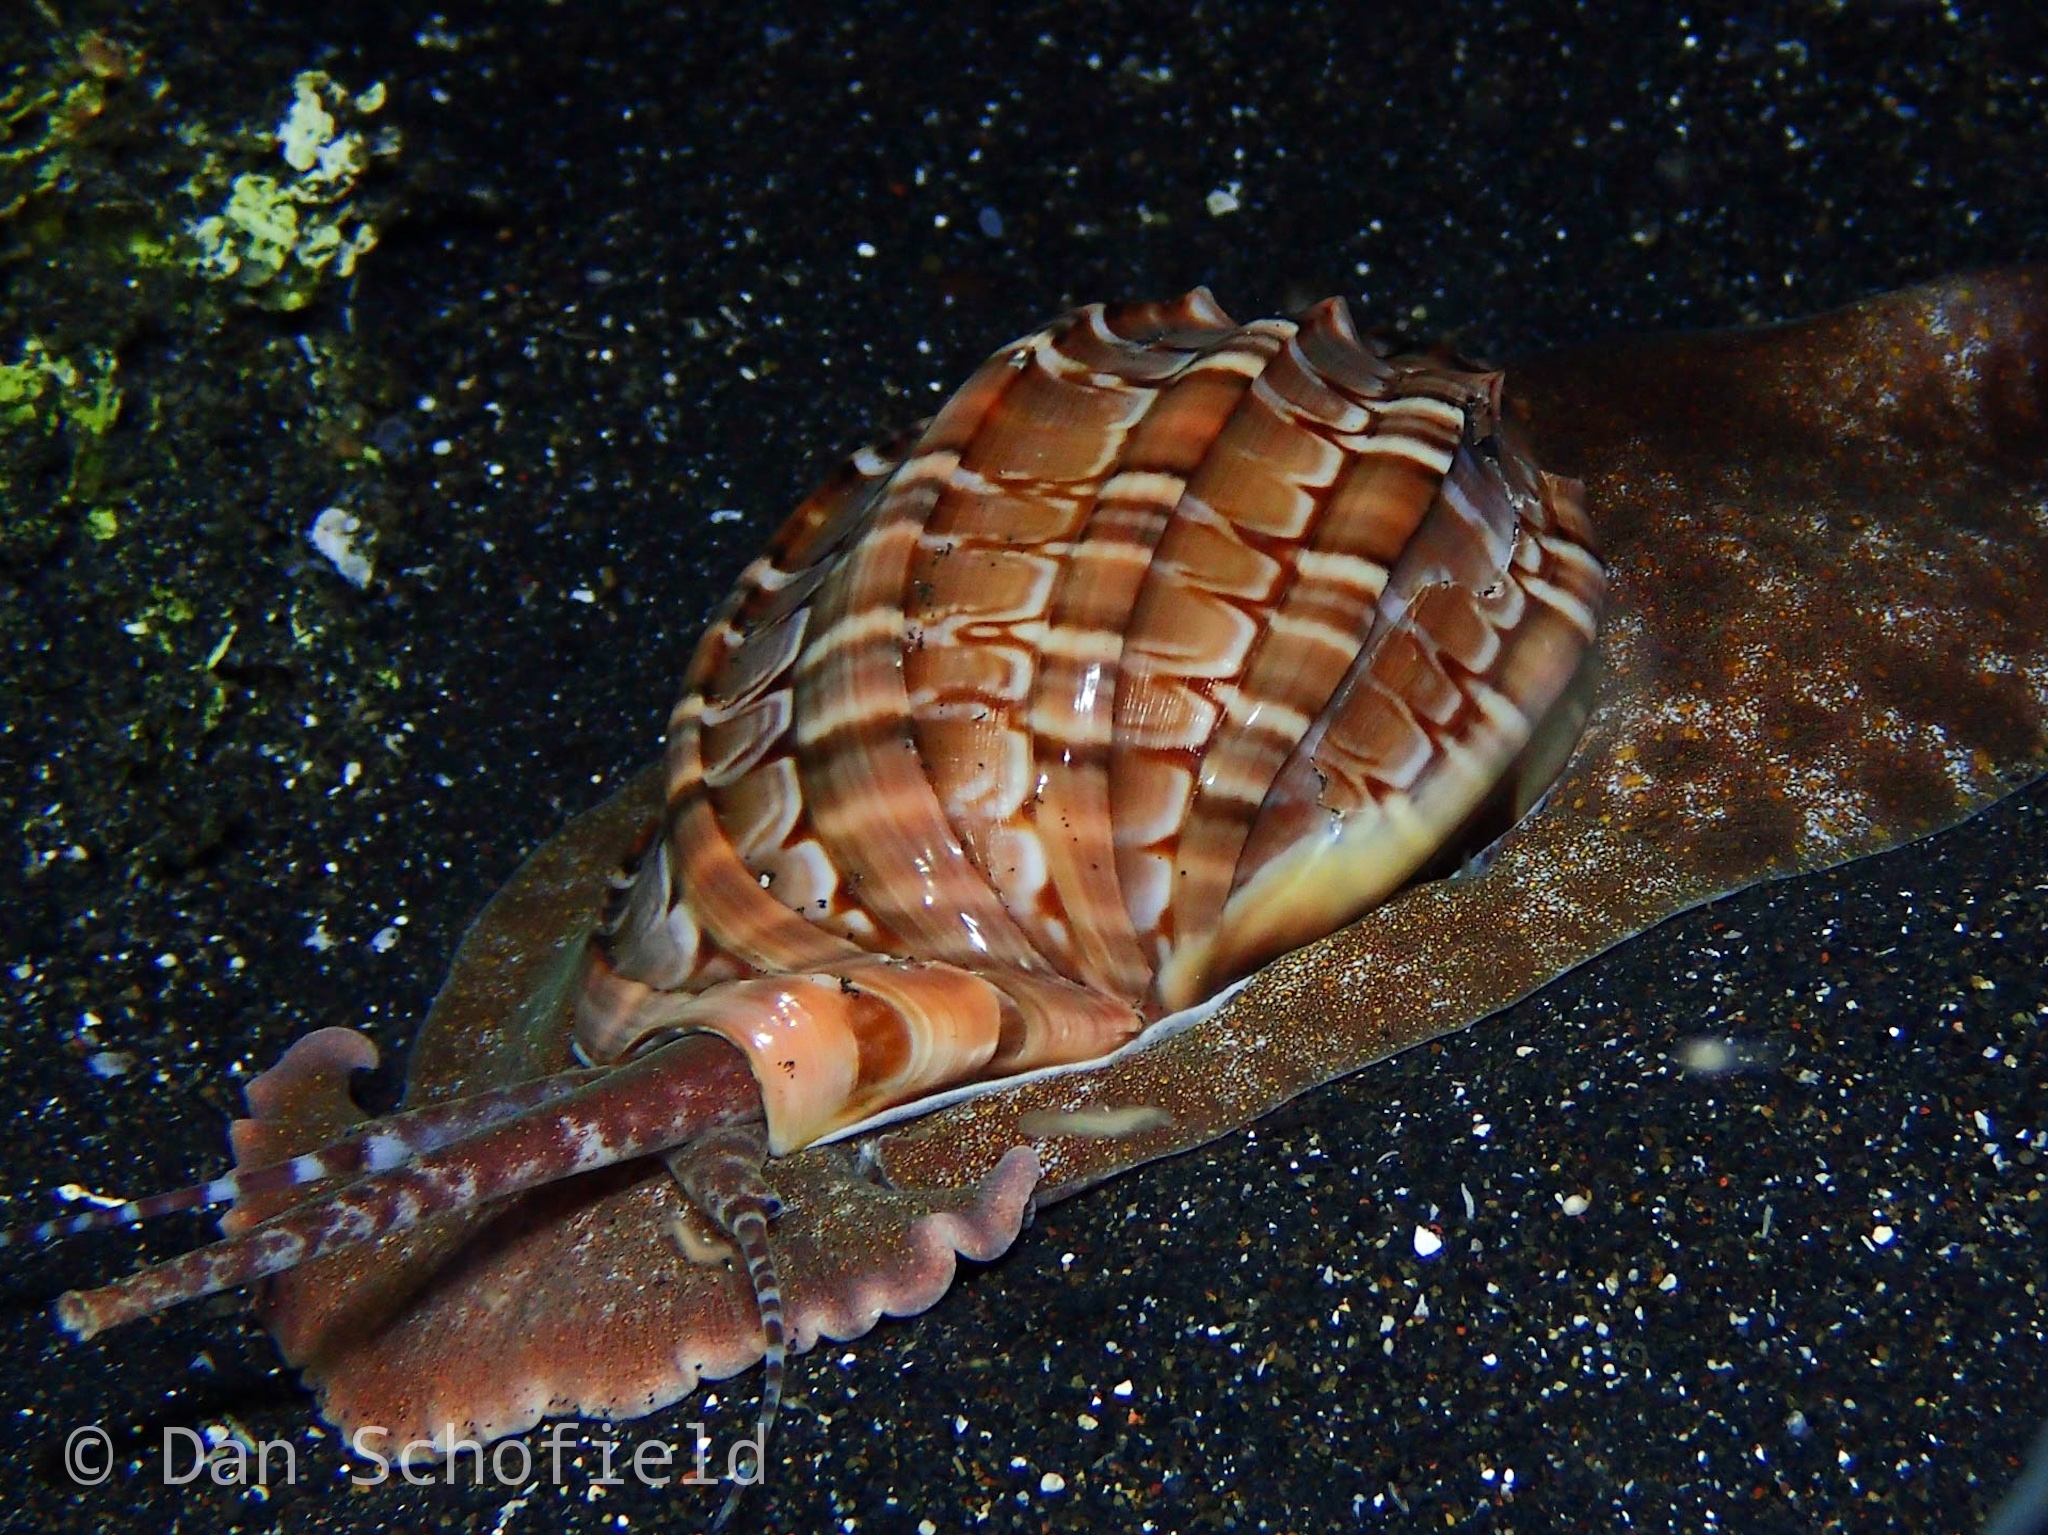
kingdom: Animalia
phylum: Mollusca
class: Gastropoda
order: Neogastropoda
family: Harpidae
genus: Harpa
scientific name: Harpa major
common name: Large harp
